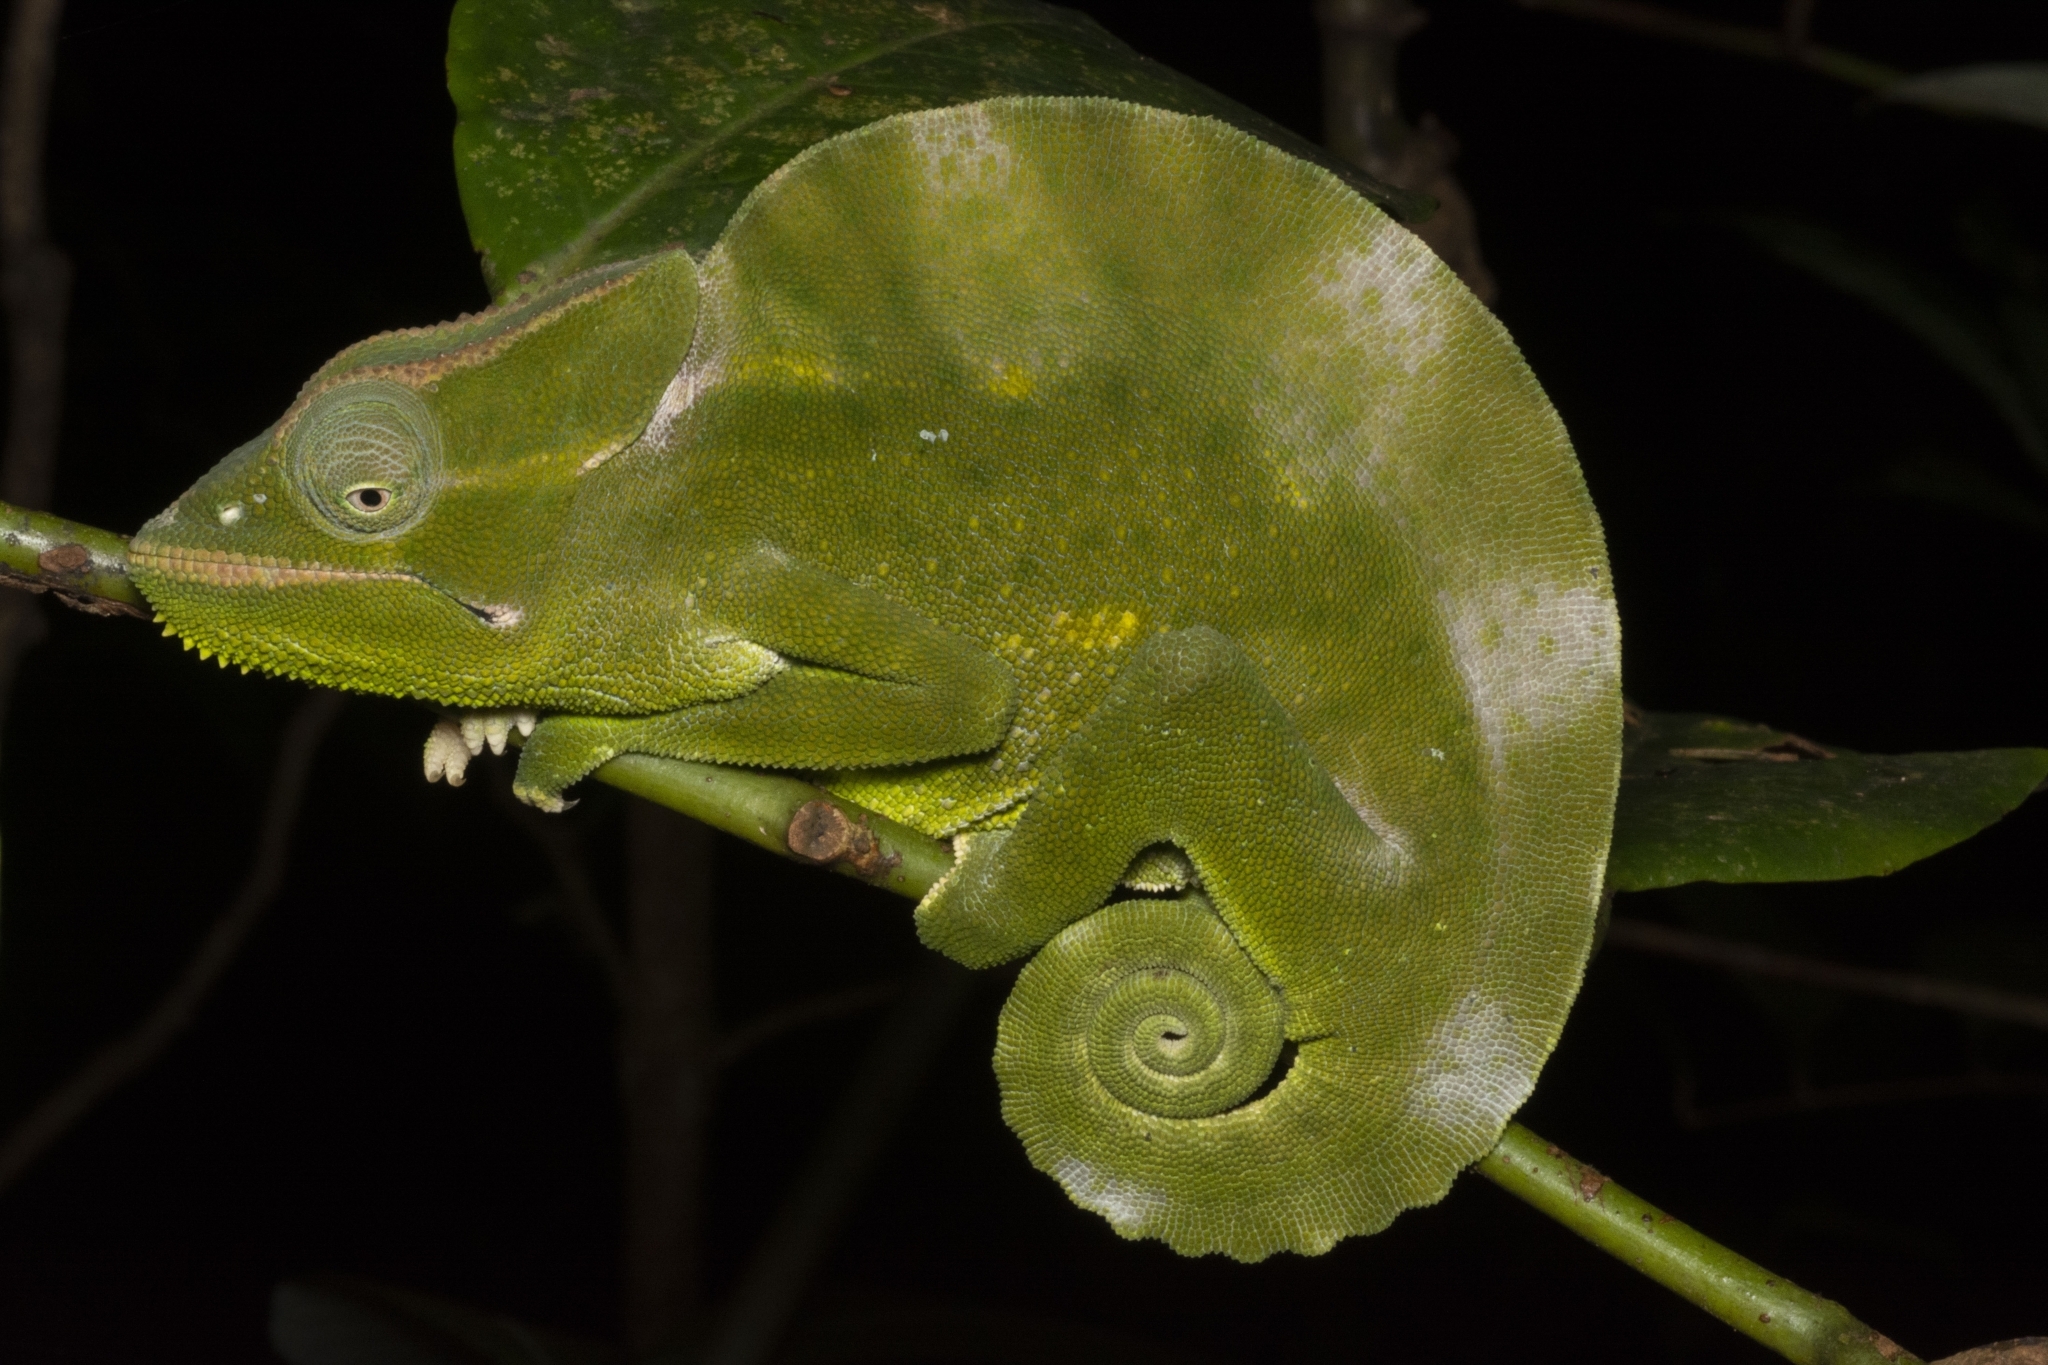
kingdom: Animalia
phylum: Chordata
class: Squamata
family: Chamaeleonidae
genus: Trioceros
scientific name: Trioceros deremensis
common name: Wavy chameleon
